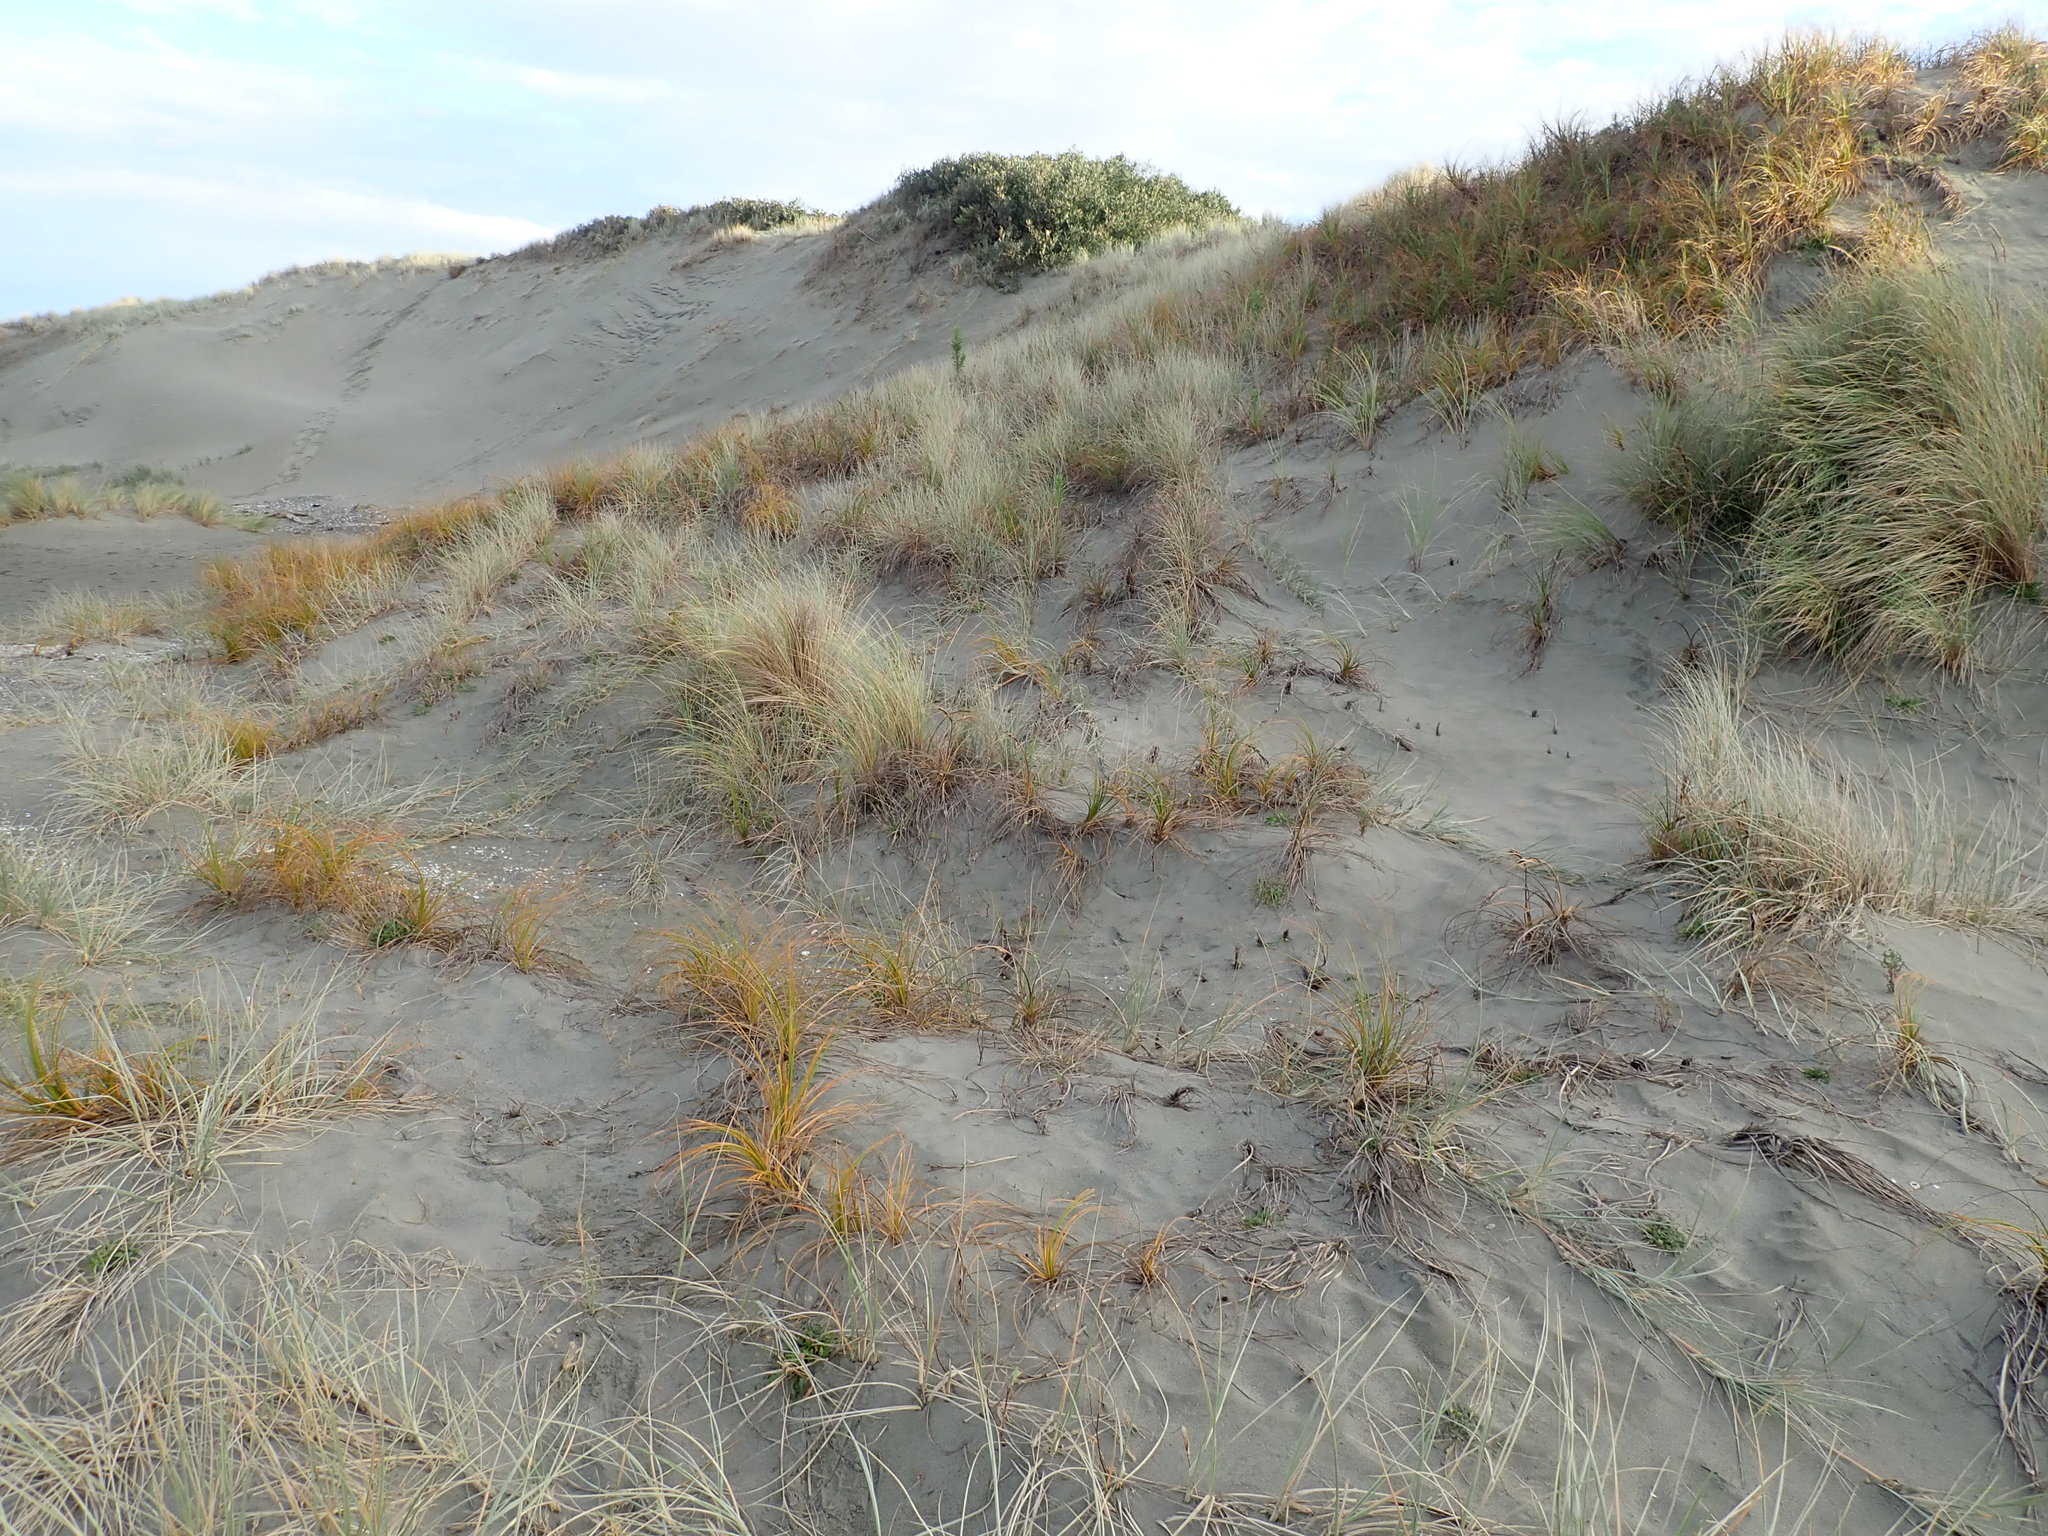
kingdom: Plantae
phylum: Tracheophyta
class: Liliopsida
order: Poales
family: Cyperaceae
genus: Ficinia
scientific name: Ficinia spiralis
